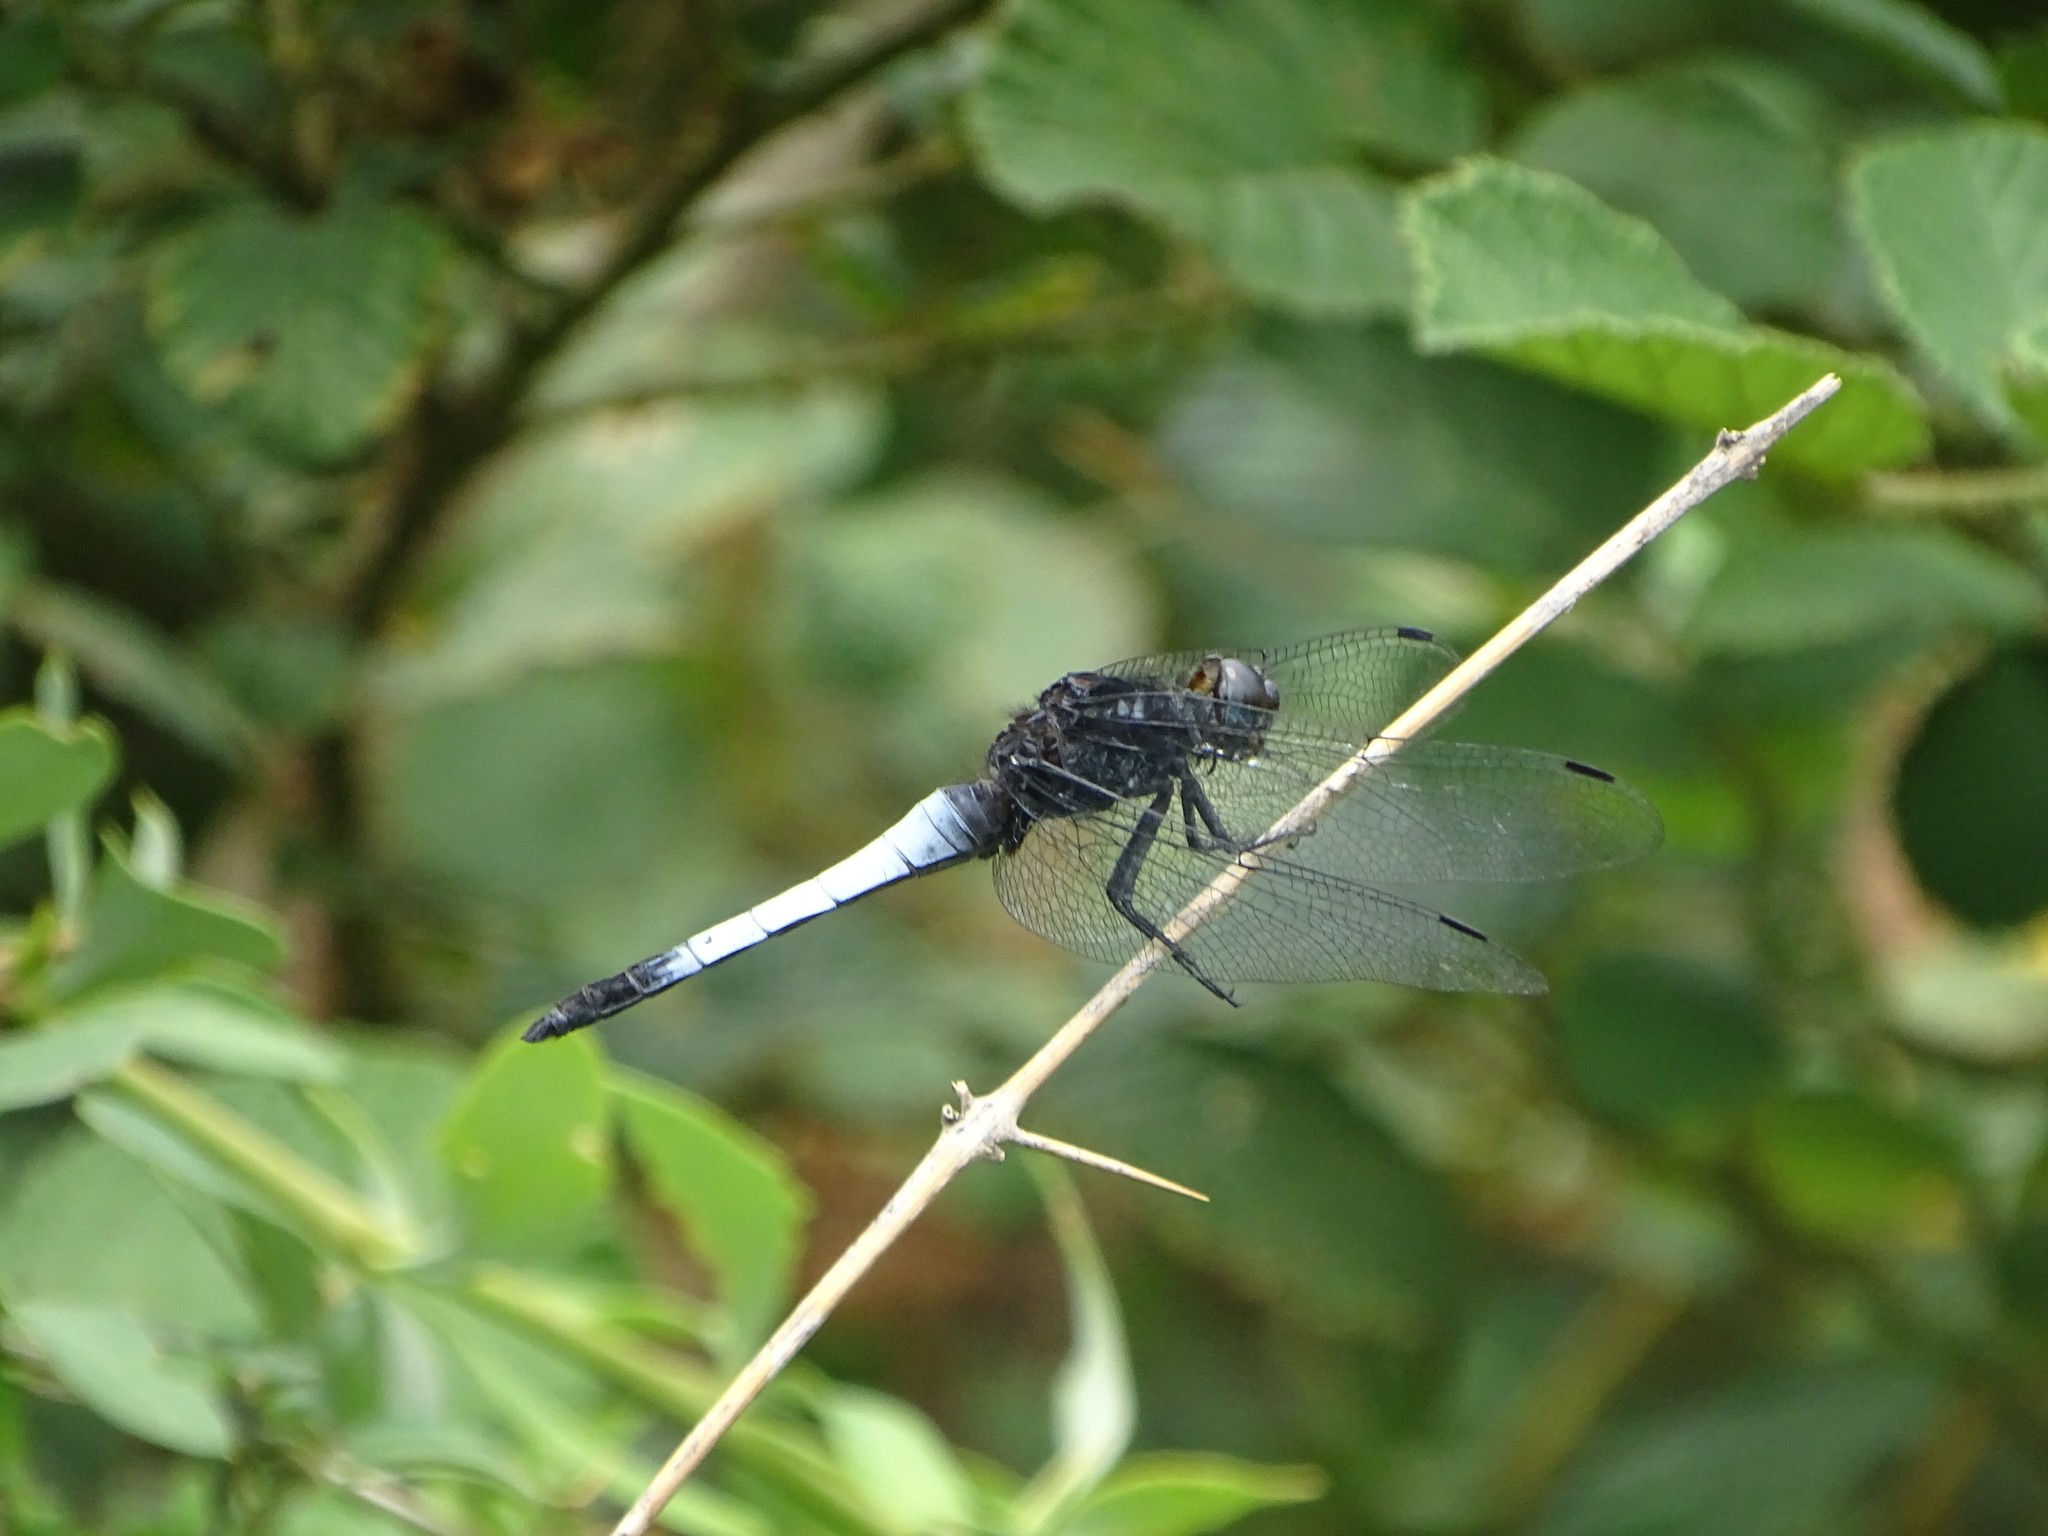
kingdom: Animalia
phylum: Arthropoda
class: Insecta
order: Odonata
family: Libellulidae
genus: Orthetrum
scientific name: Orthetrum triangulare
